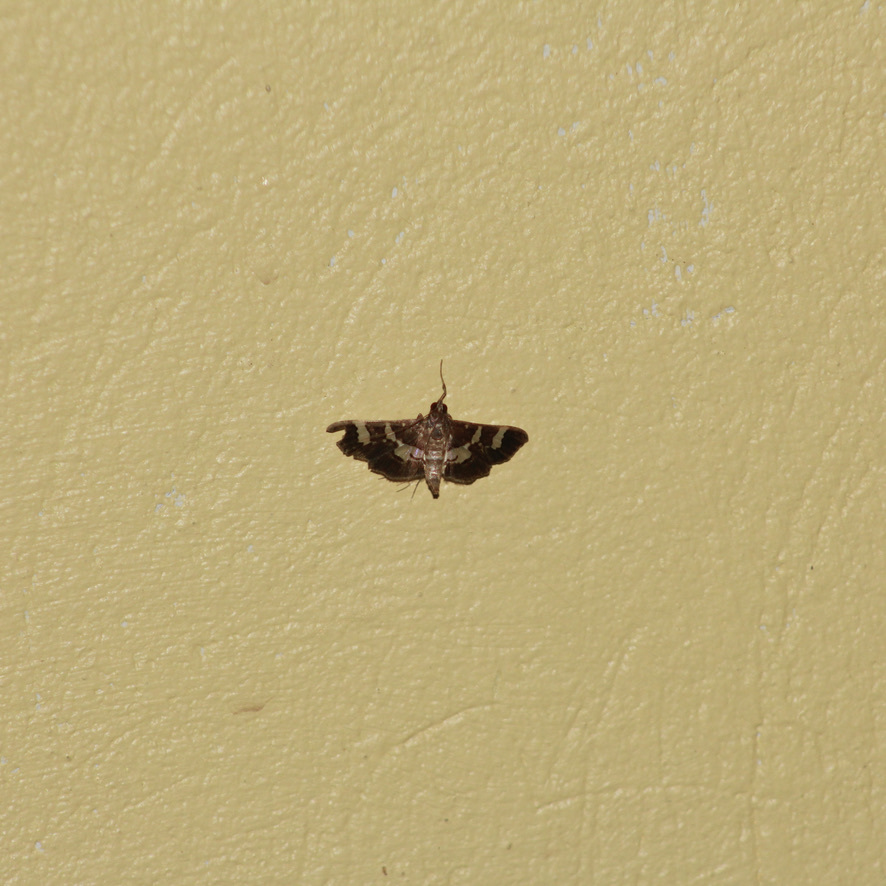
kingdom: Animalia
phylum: Arthropoda
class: Insecta
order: Lepidoptera
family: Crambidae
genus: Desmia
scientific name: Desmia ufeus
